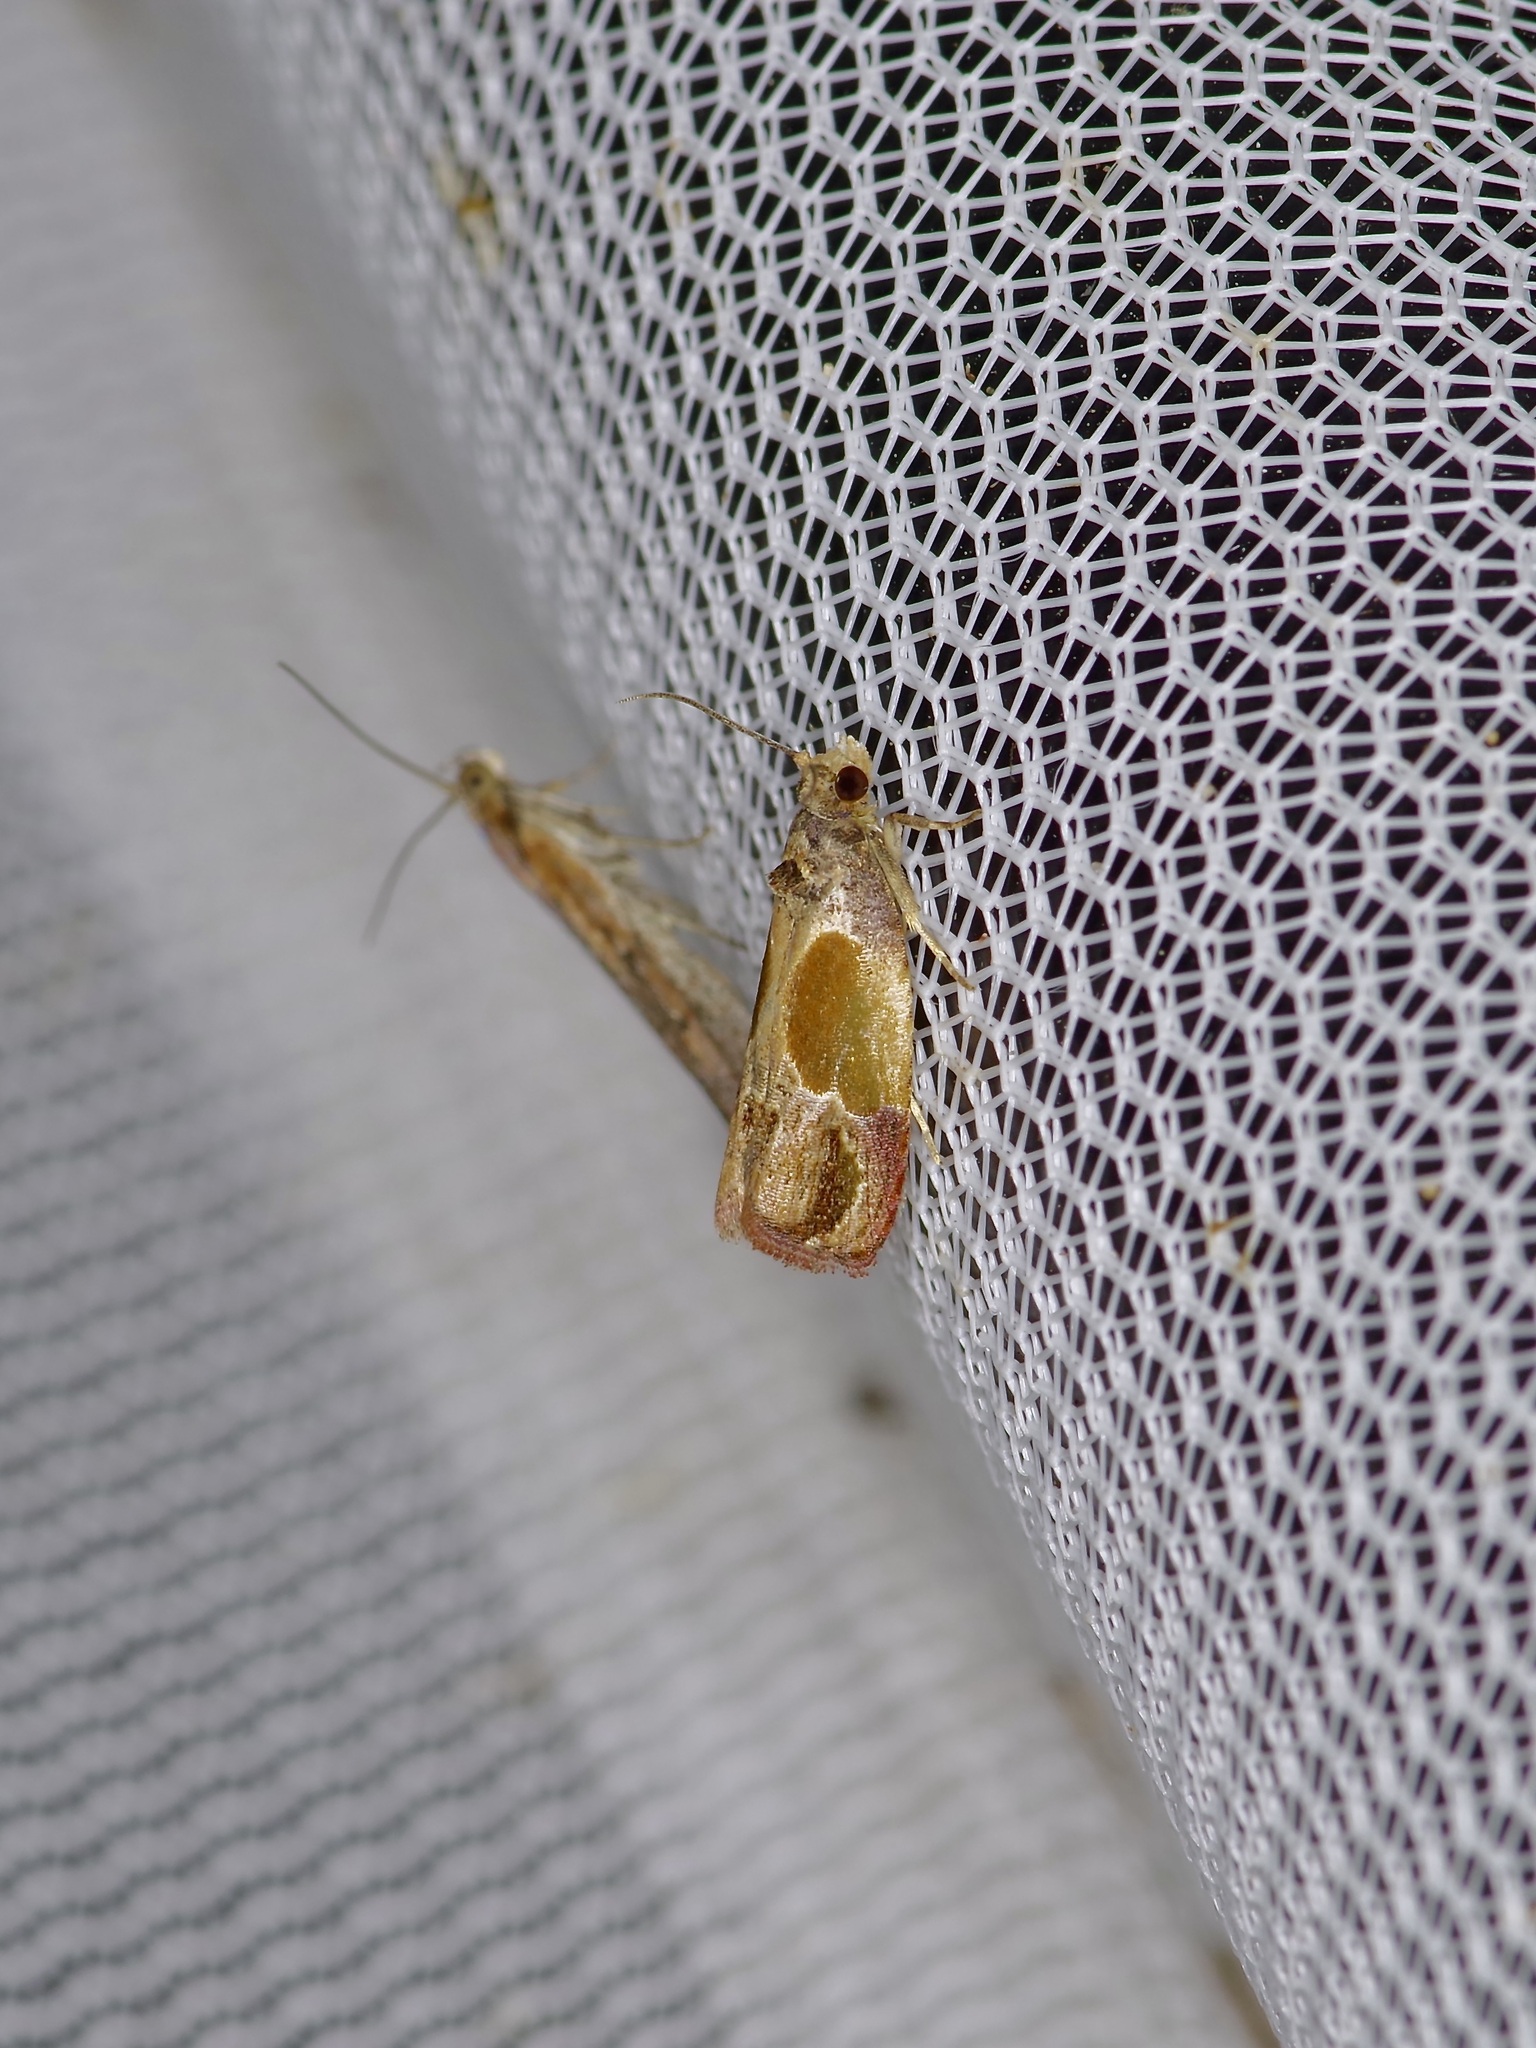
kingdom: Animalia
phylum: Arthropoda
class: Insecta
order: Lepidoptera
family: Tortricidae
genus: Eumarozia
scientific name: Eumarozia malachitana
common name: Sculptured moth
